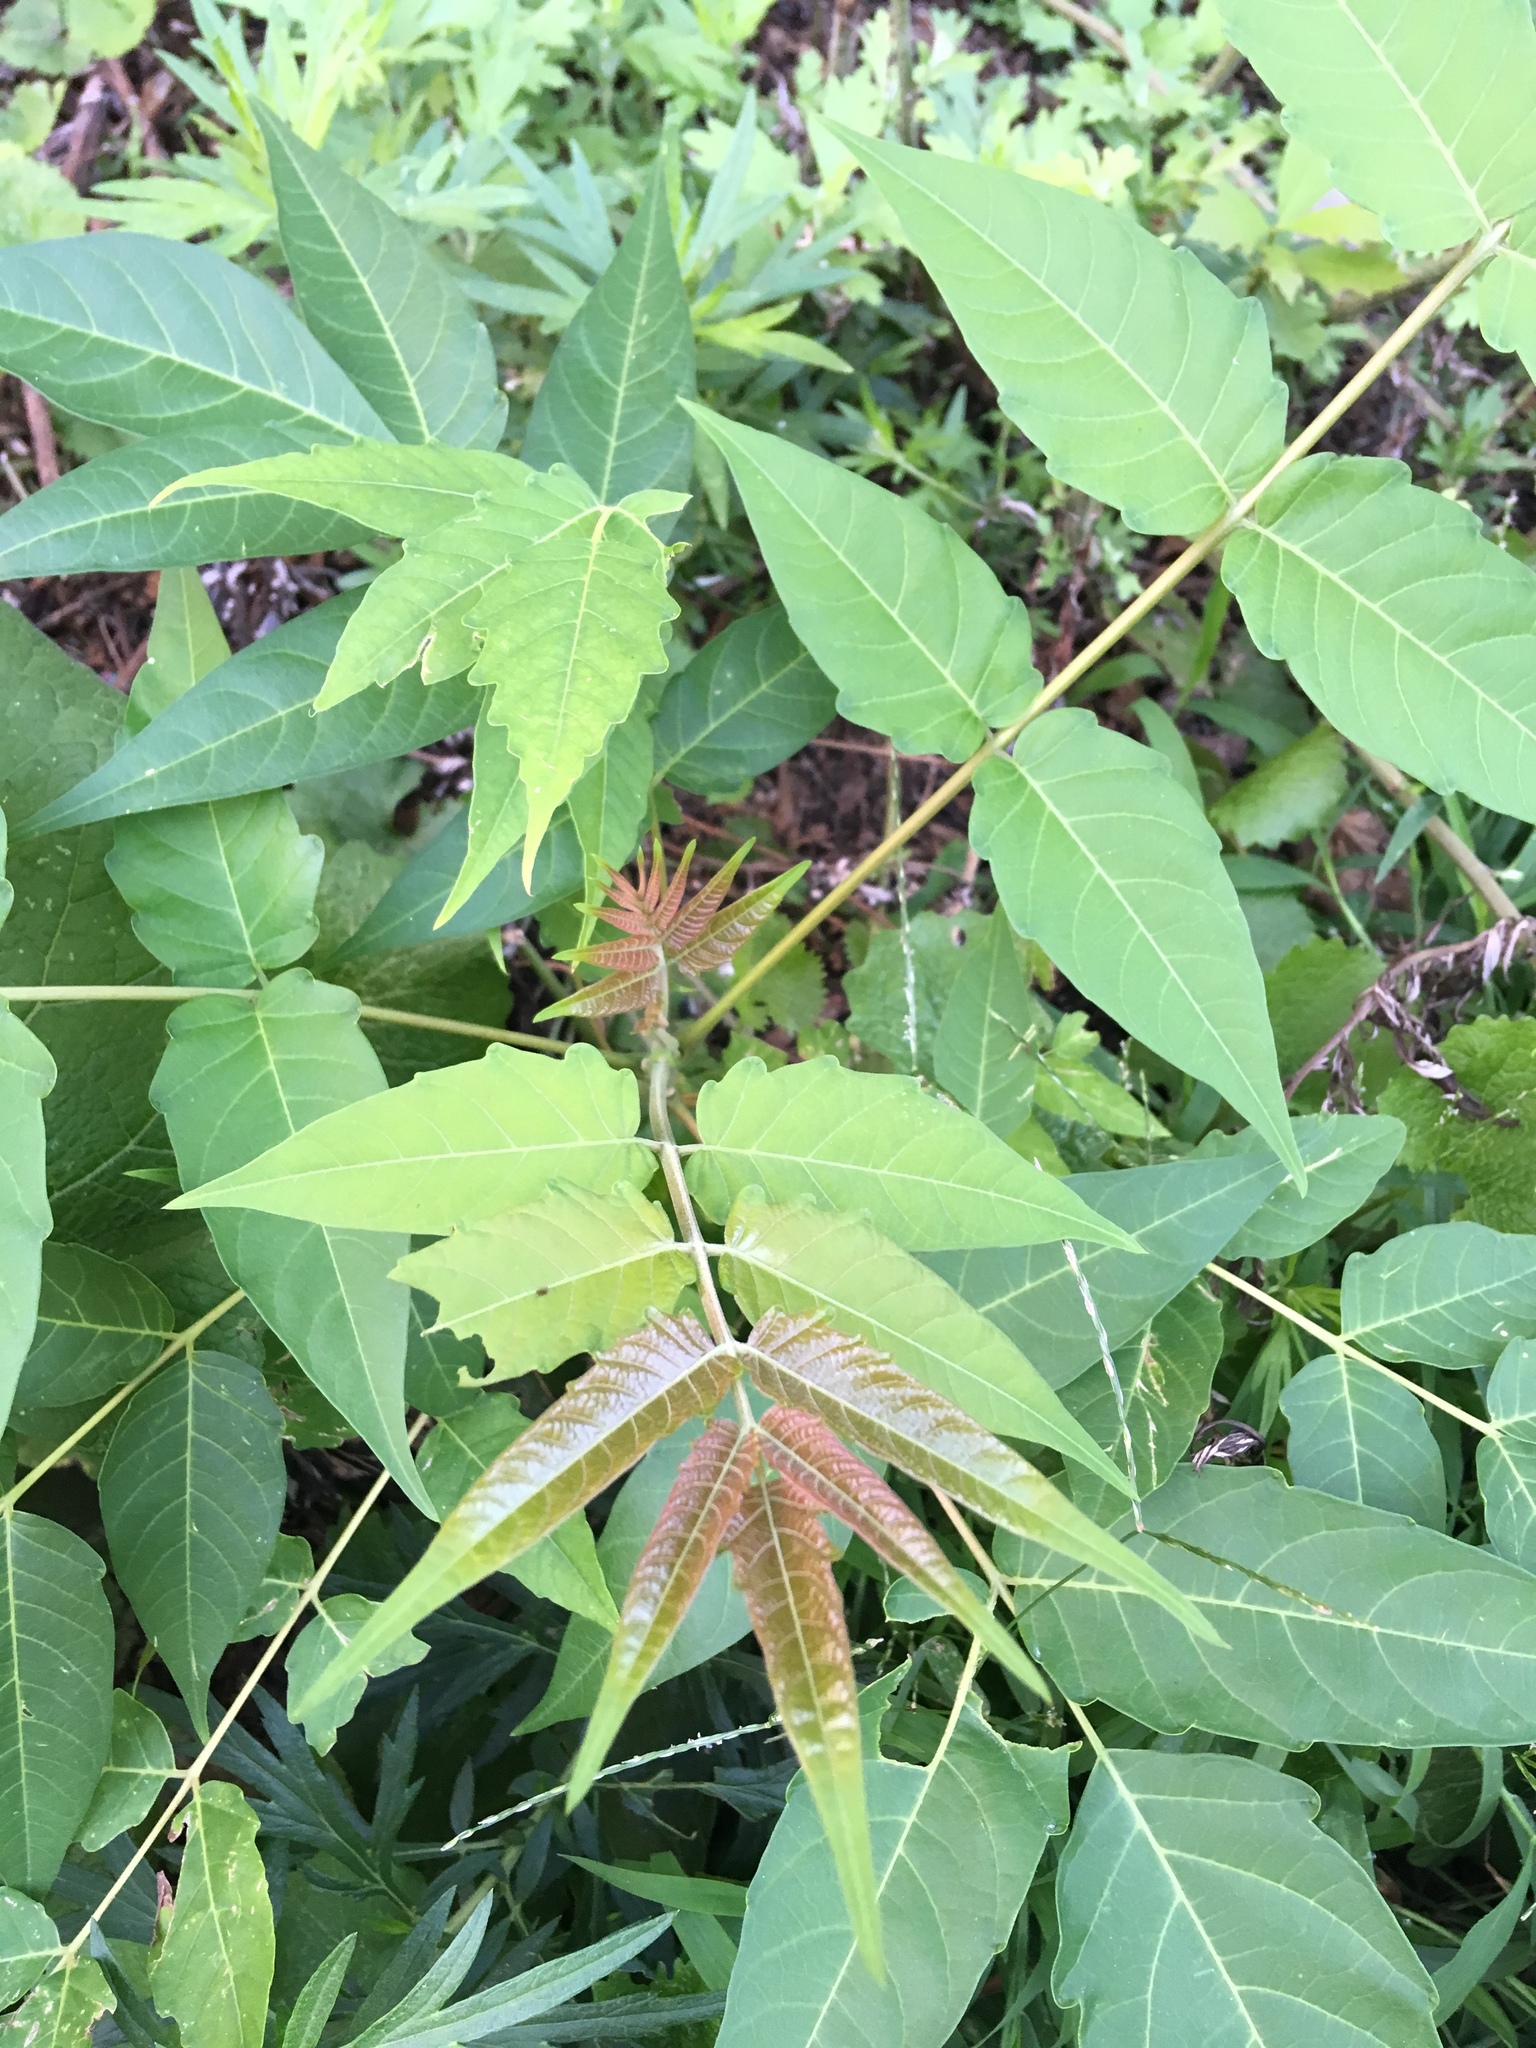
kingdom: Plantae
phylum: Tracheophyta
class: Magnoliopsida
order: Sapindales
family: Simaroubaceae
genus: Ailanthus
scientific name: Ailanthus altissima
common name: Tree-of-heaven
